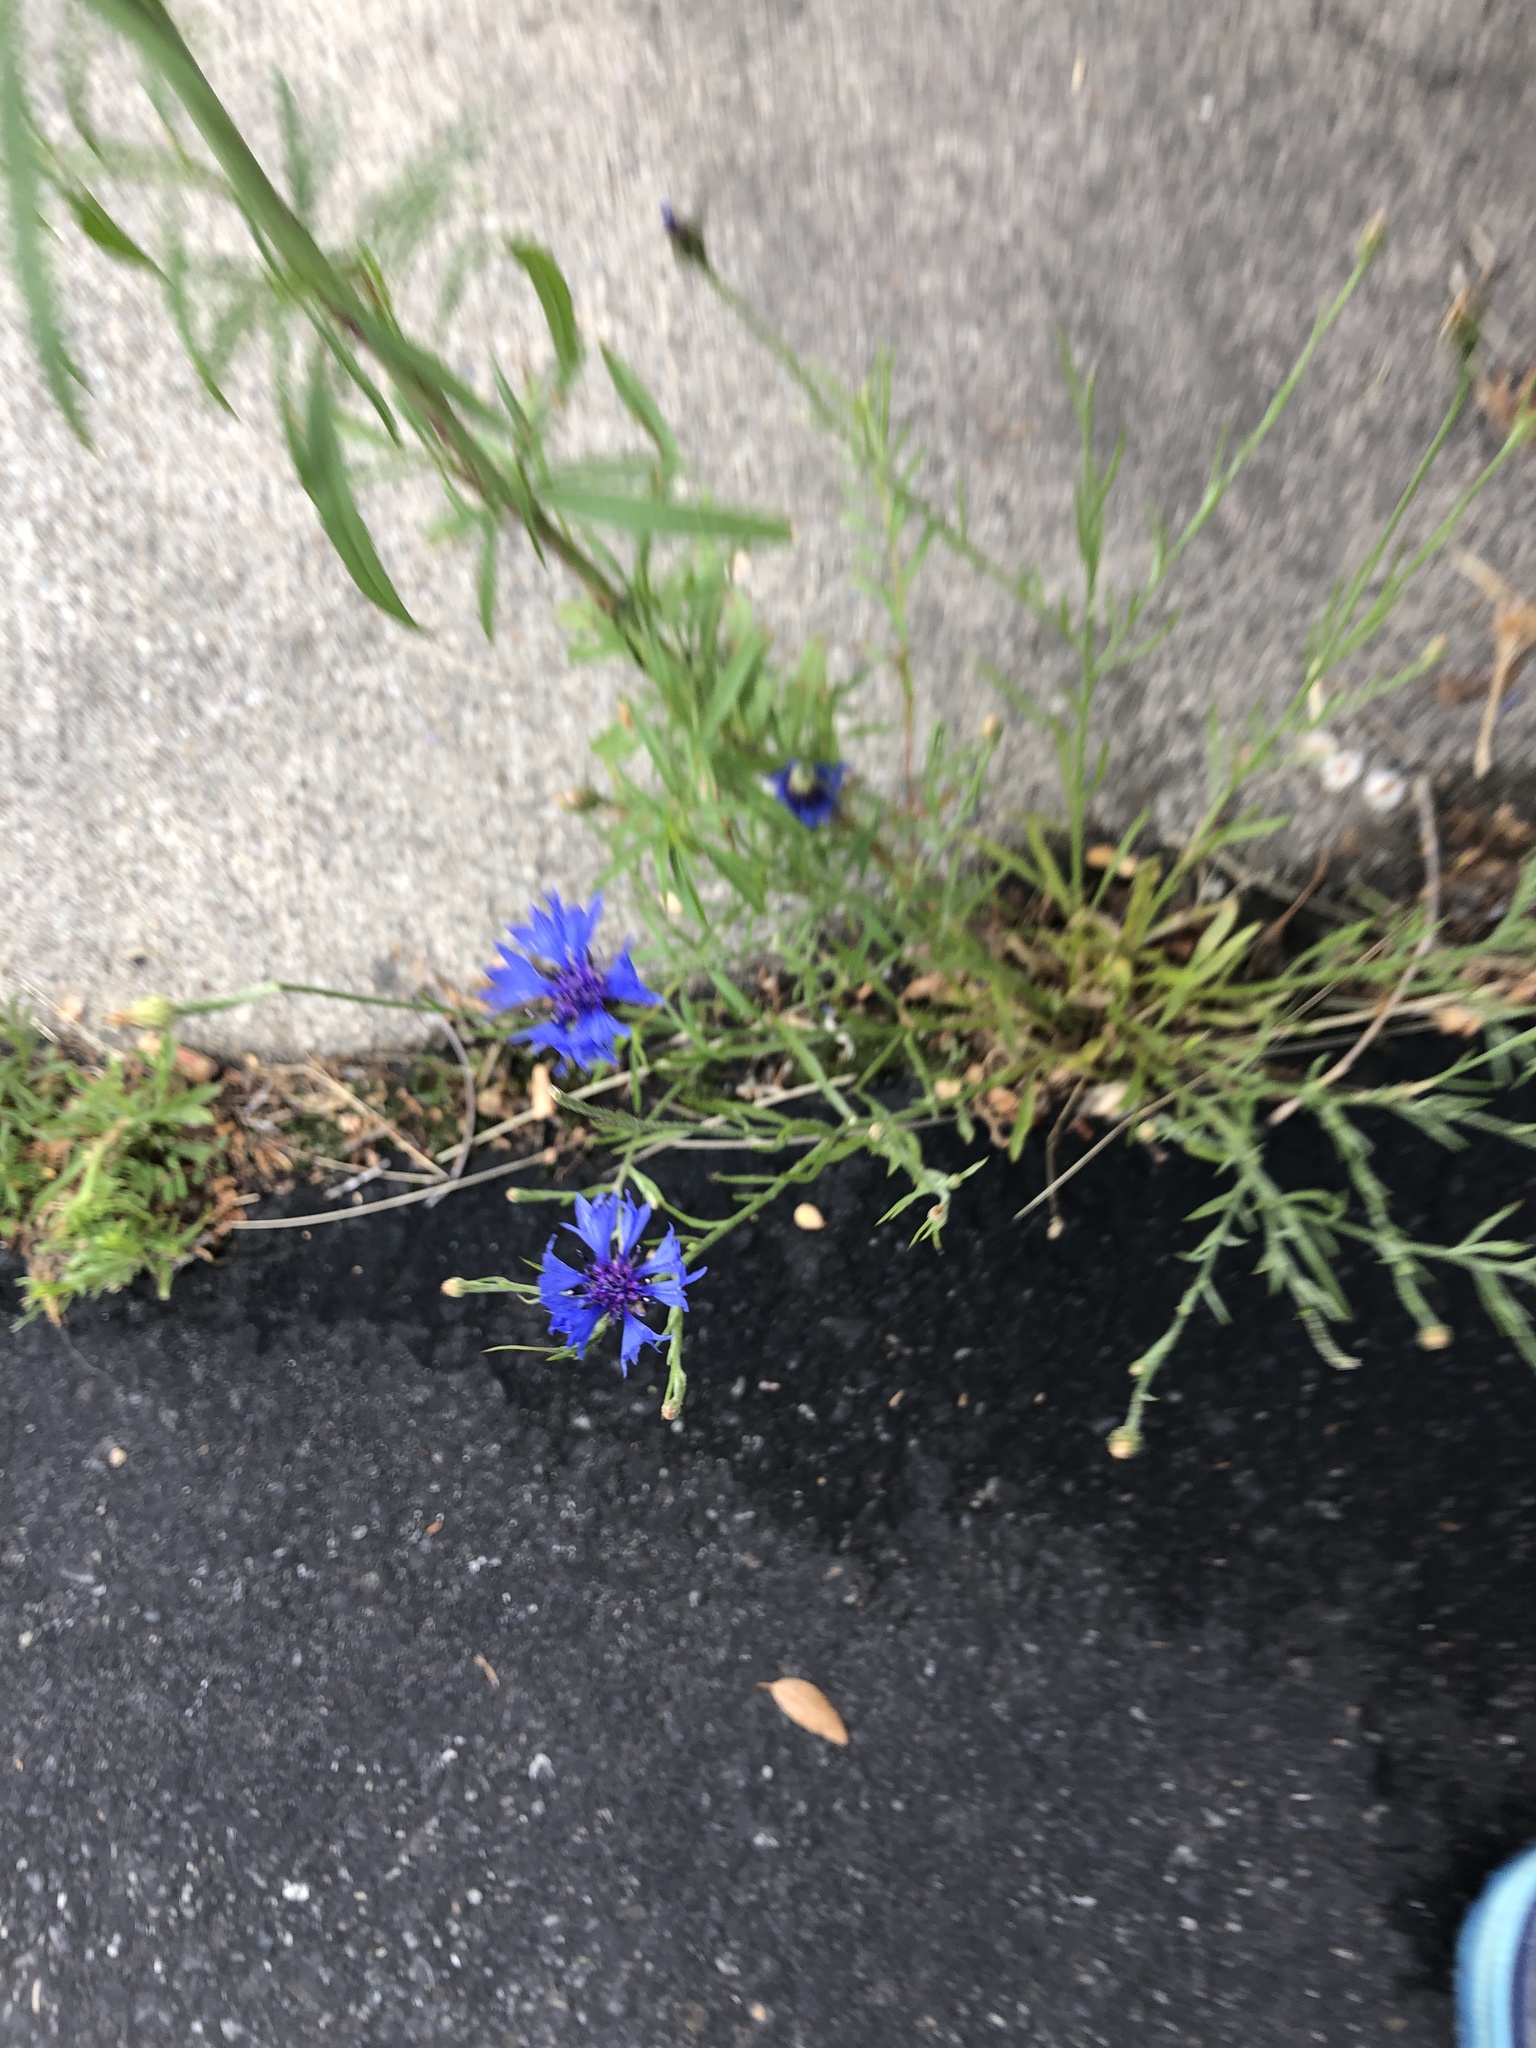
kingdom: Plantae
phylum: Tracheophyta
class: Magnoliopsida
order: Asterales
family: Asteraceae
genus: Centaurea
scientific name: Centaurea cyanus
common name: Cornflower
